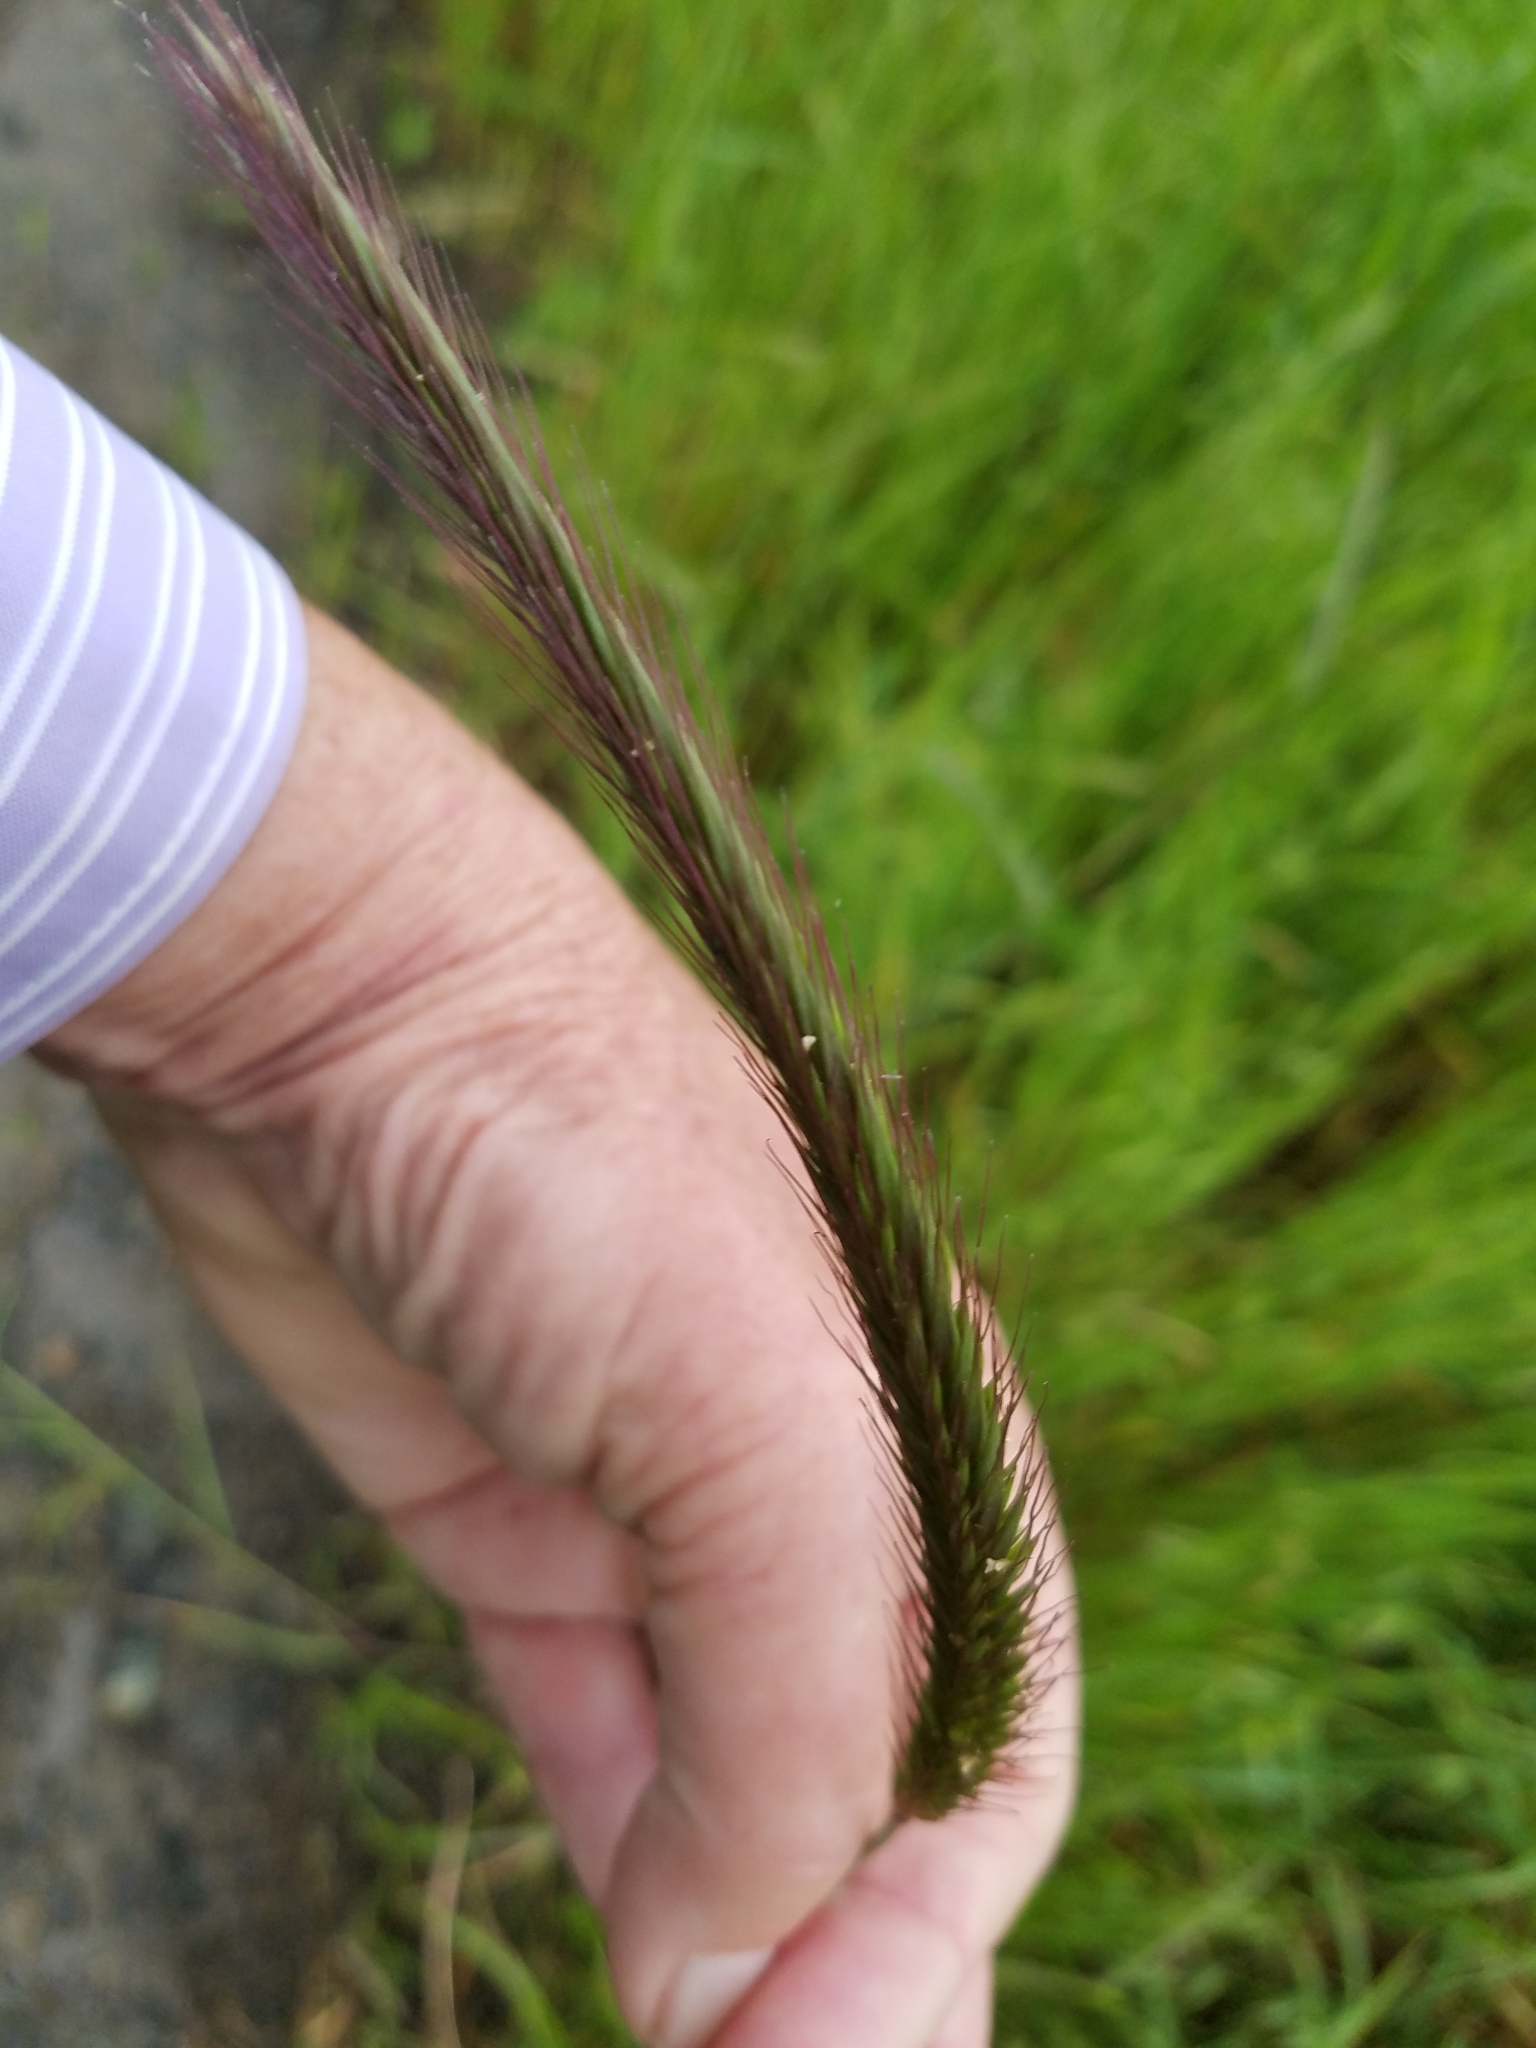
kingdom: Plantae
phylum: Tracheophyta
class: Liliopsida
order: Poales
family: Poaceae
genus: Hordeum
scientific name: Hordeum brachyantherum
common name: Meadow barley
